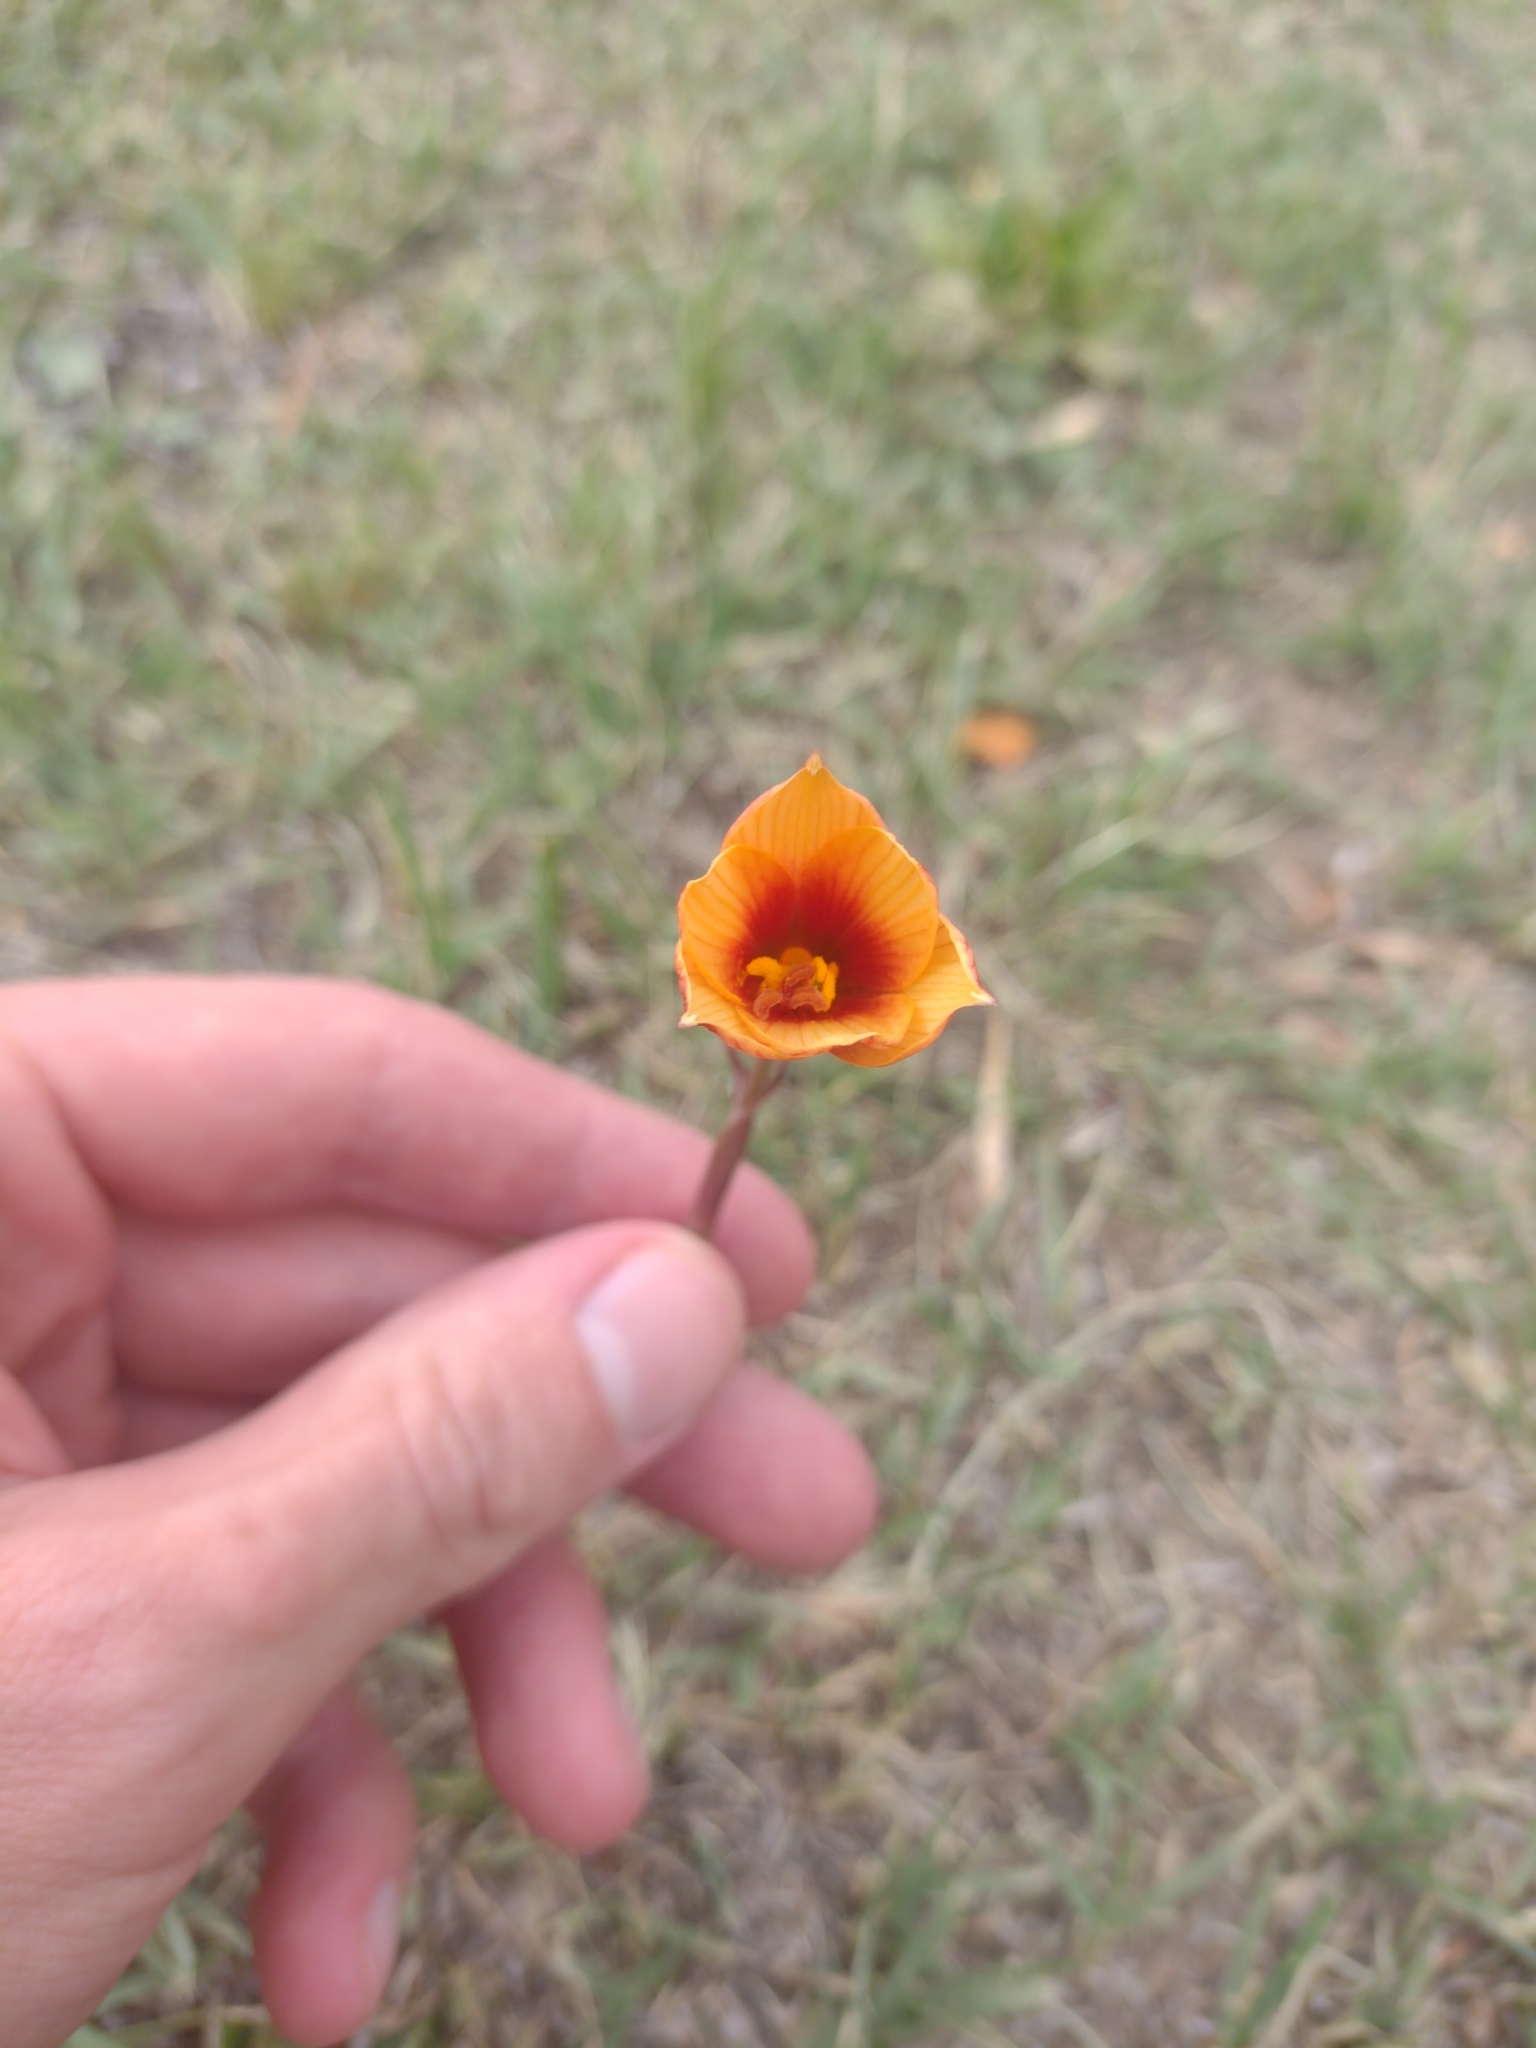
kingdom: Plantae
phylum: Tracheophyta
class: Liliopsida
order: Asparagales
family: Amaryllidaceae
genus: Zephyranthes
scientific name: Zephyranthes tubispatha
